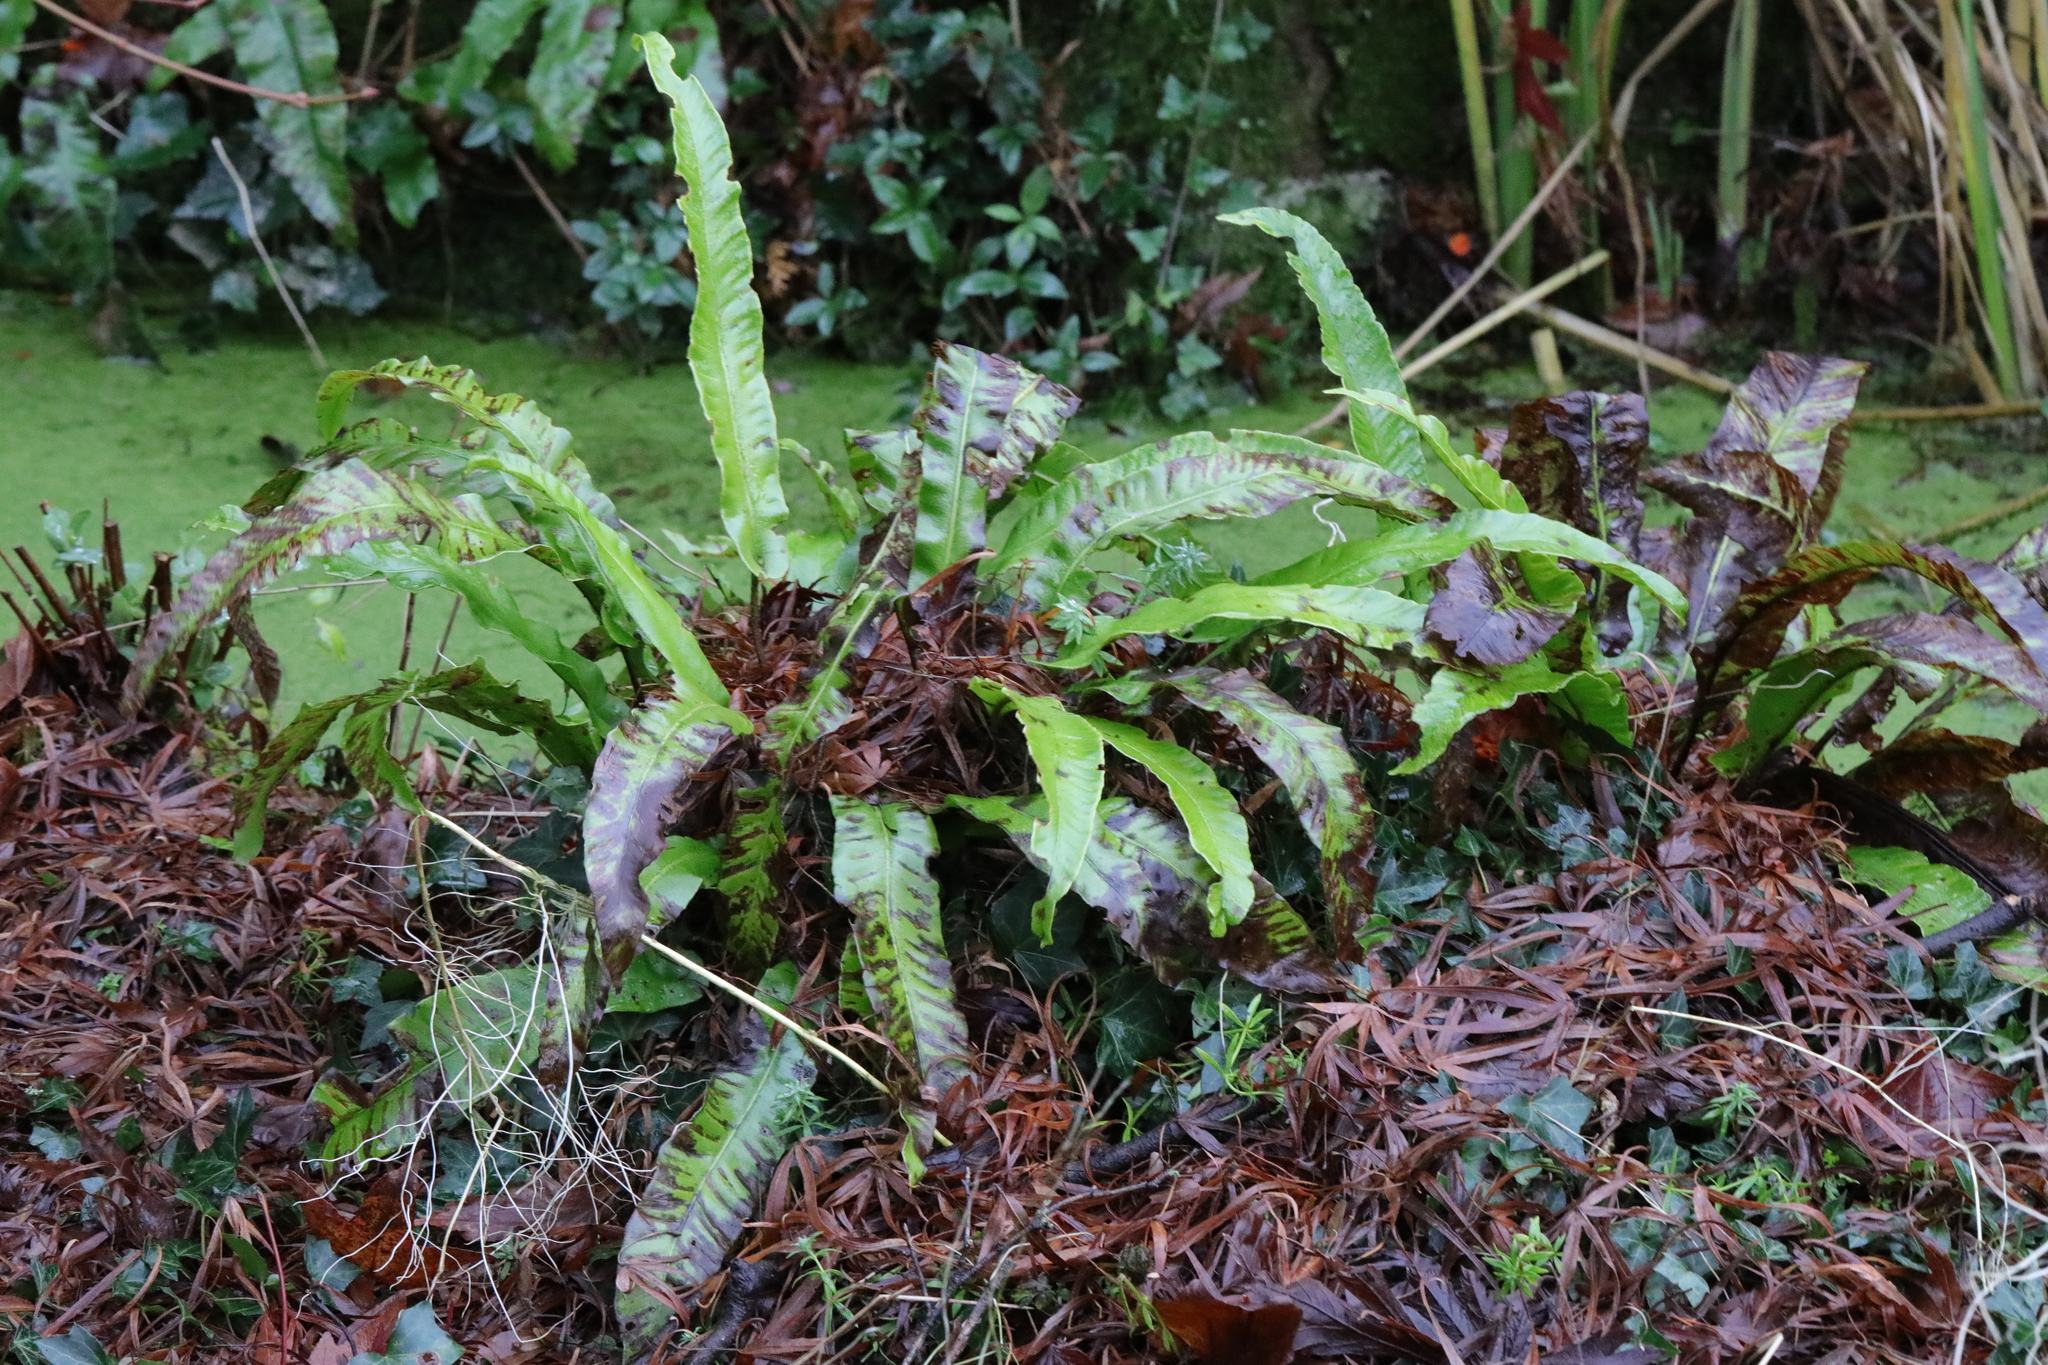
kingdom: Plantae
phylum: Tracheophyta
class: Polypodiopsida
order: Polypodiales
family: Aspleniaceae
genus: Asplenium
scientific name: Asplenium scolopendrium
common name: Hart's-tongue fern
